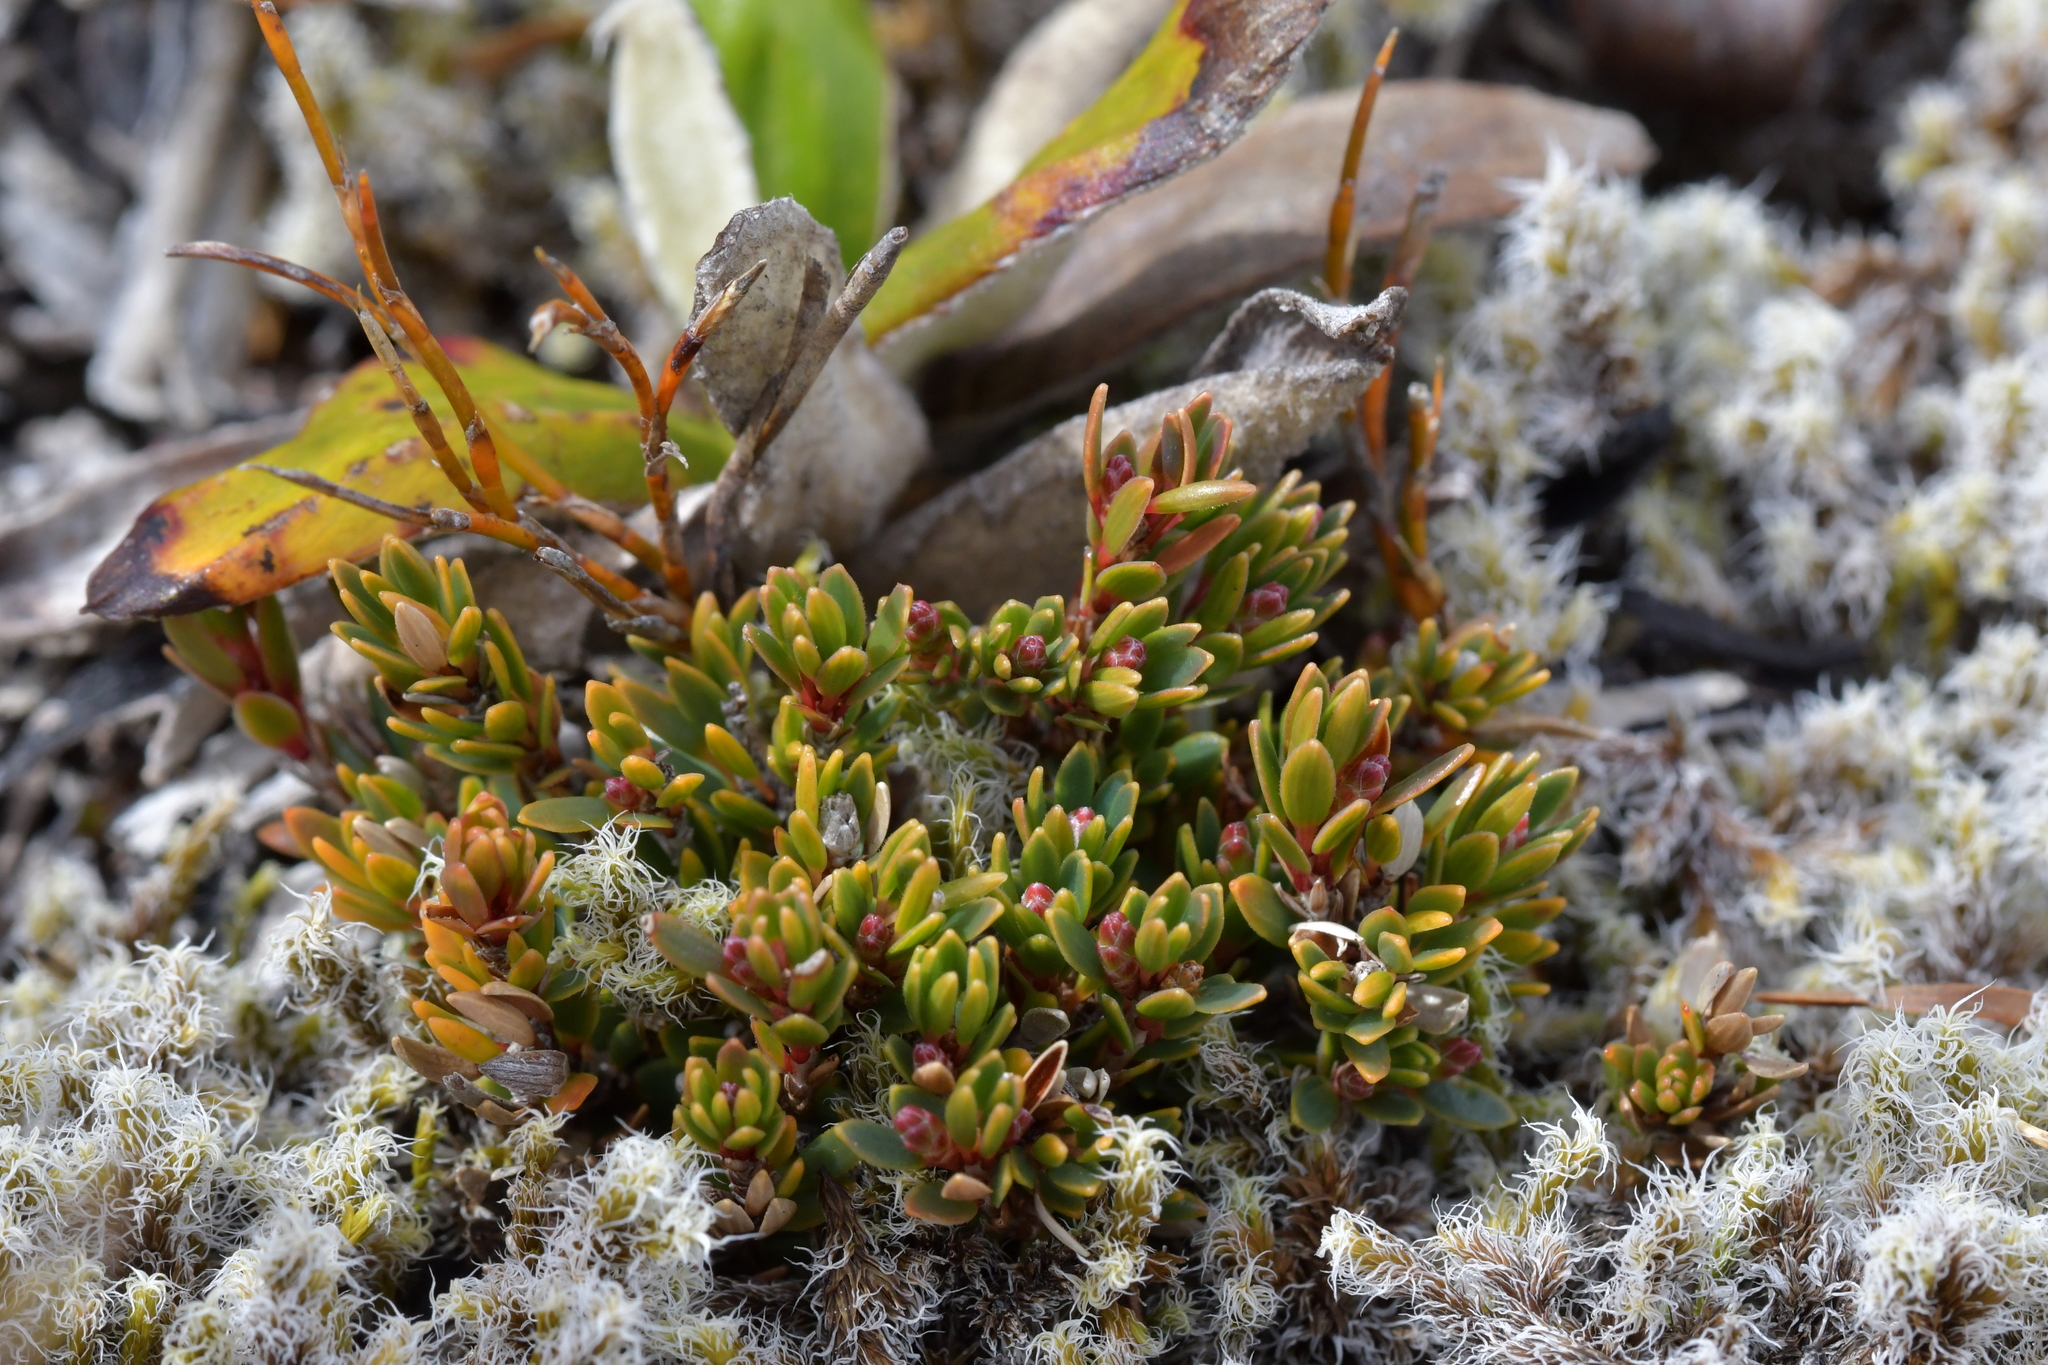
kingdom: Plantae
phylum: Tracheophyta
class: Magnoliopsida
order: Ericales
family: Ericaceae
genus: Pentachondra
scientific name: Pentachondra pumila
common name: Carpet-heath
